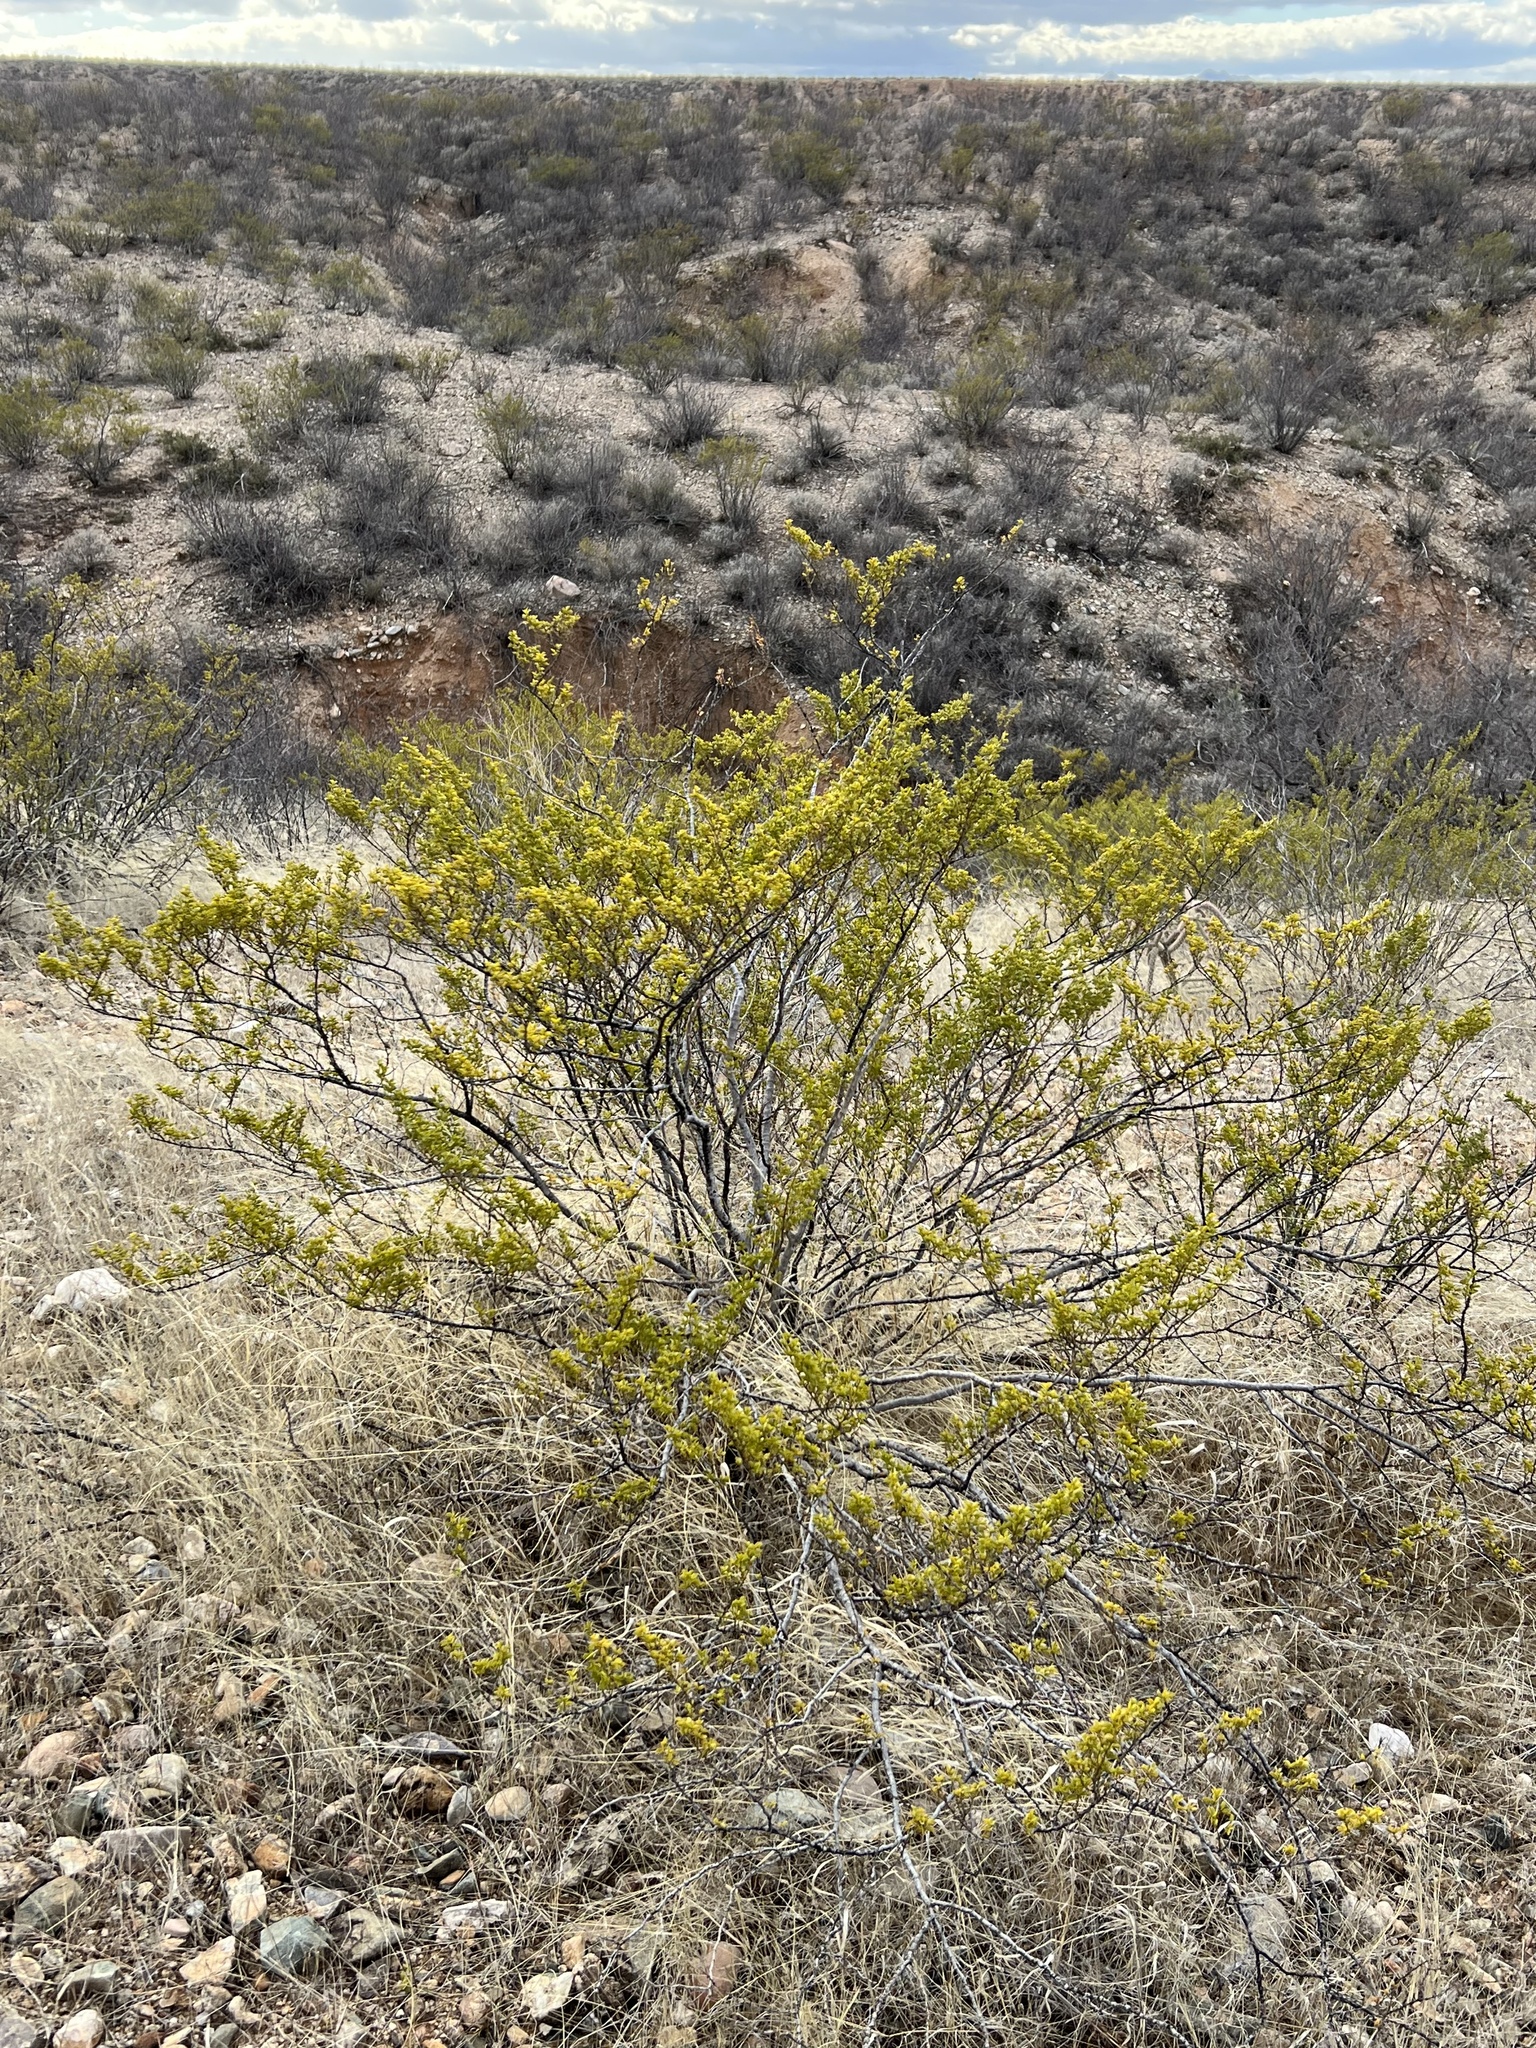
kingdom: Plantae
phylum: Tracheophyta
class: Magnoliopsida
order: Zygophyllales
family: Zygophyllaceae
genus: Larrea
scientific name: Larrea tridentata
